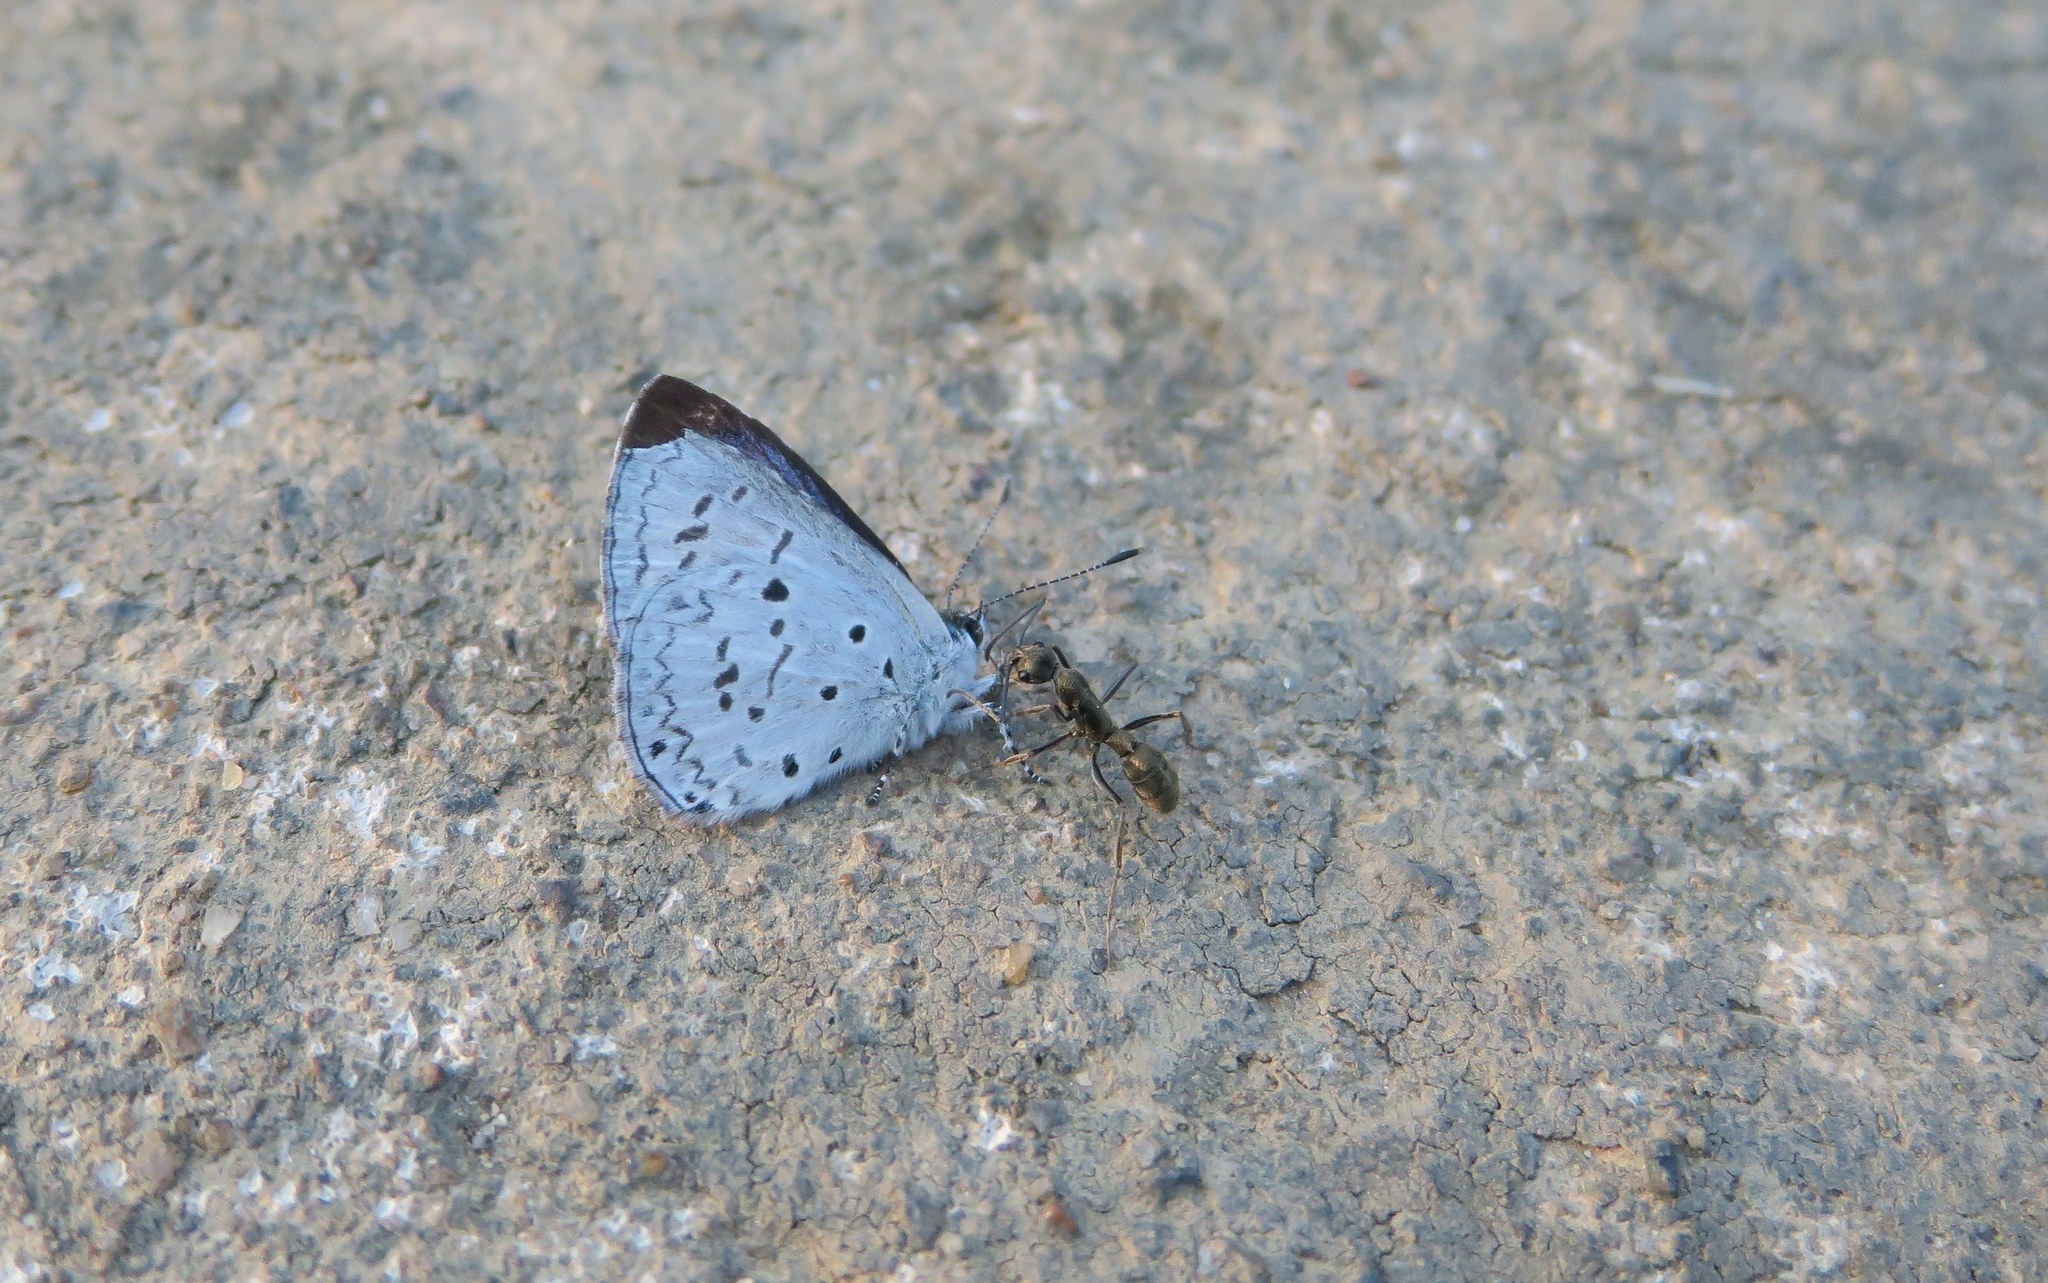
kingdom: Animalia
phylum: Arthropoda
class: Insecta
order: Lepidoptera
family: Lycaenidae
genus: Acytolepis
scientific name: Acytolepis puspa
